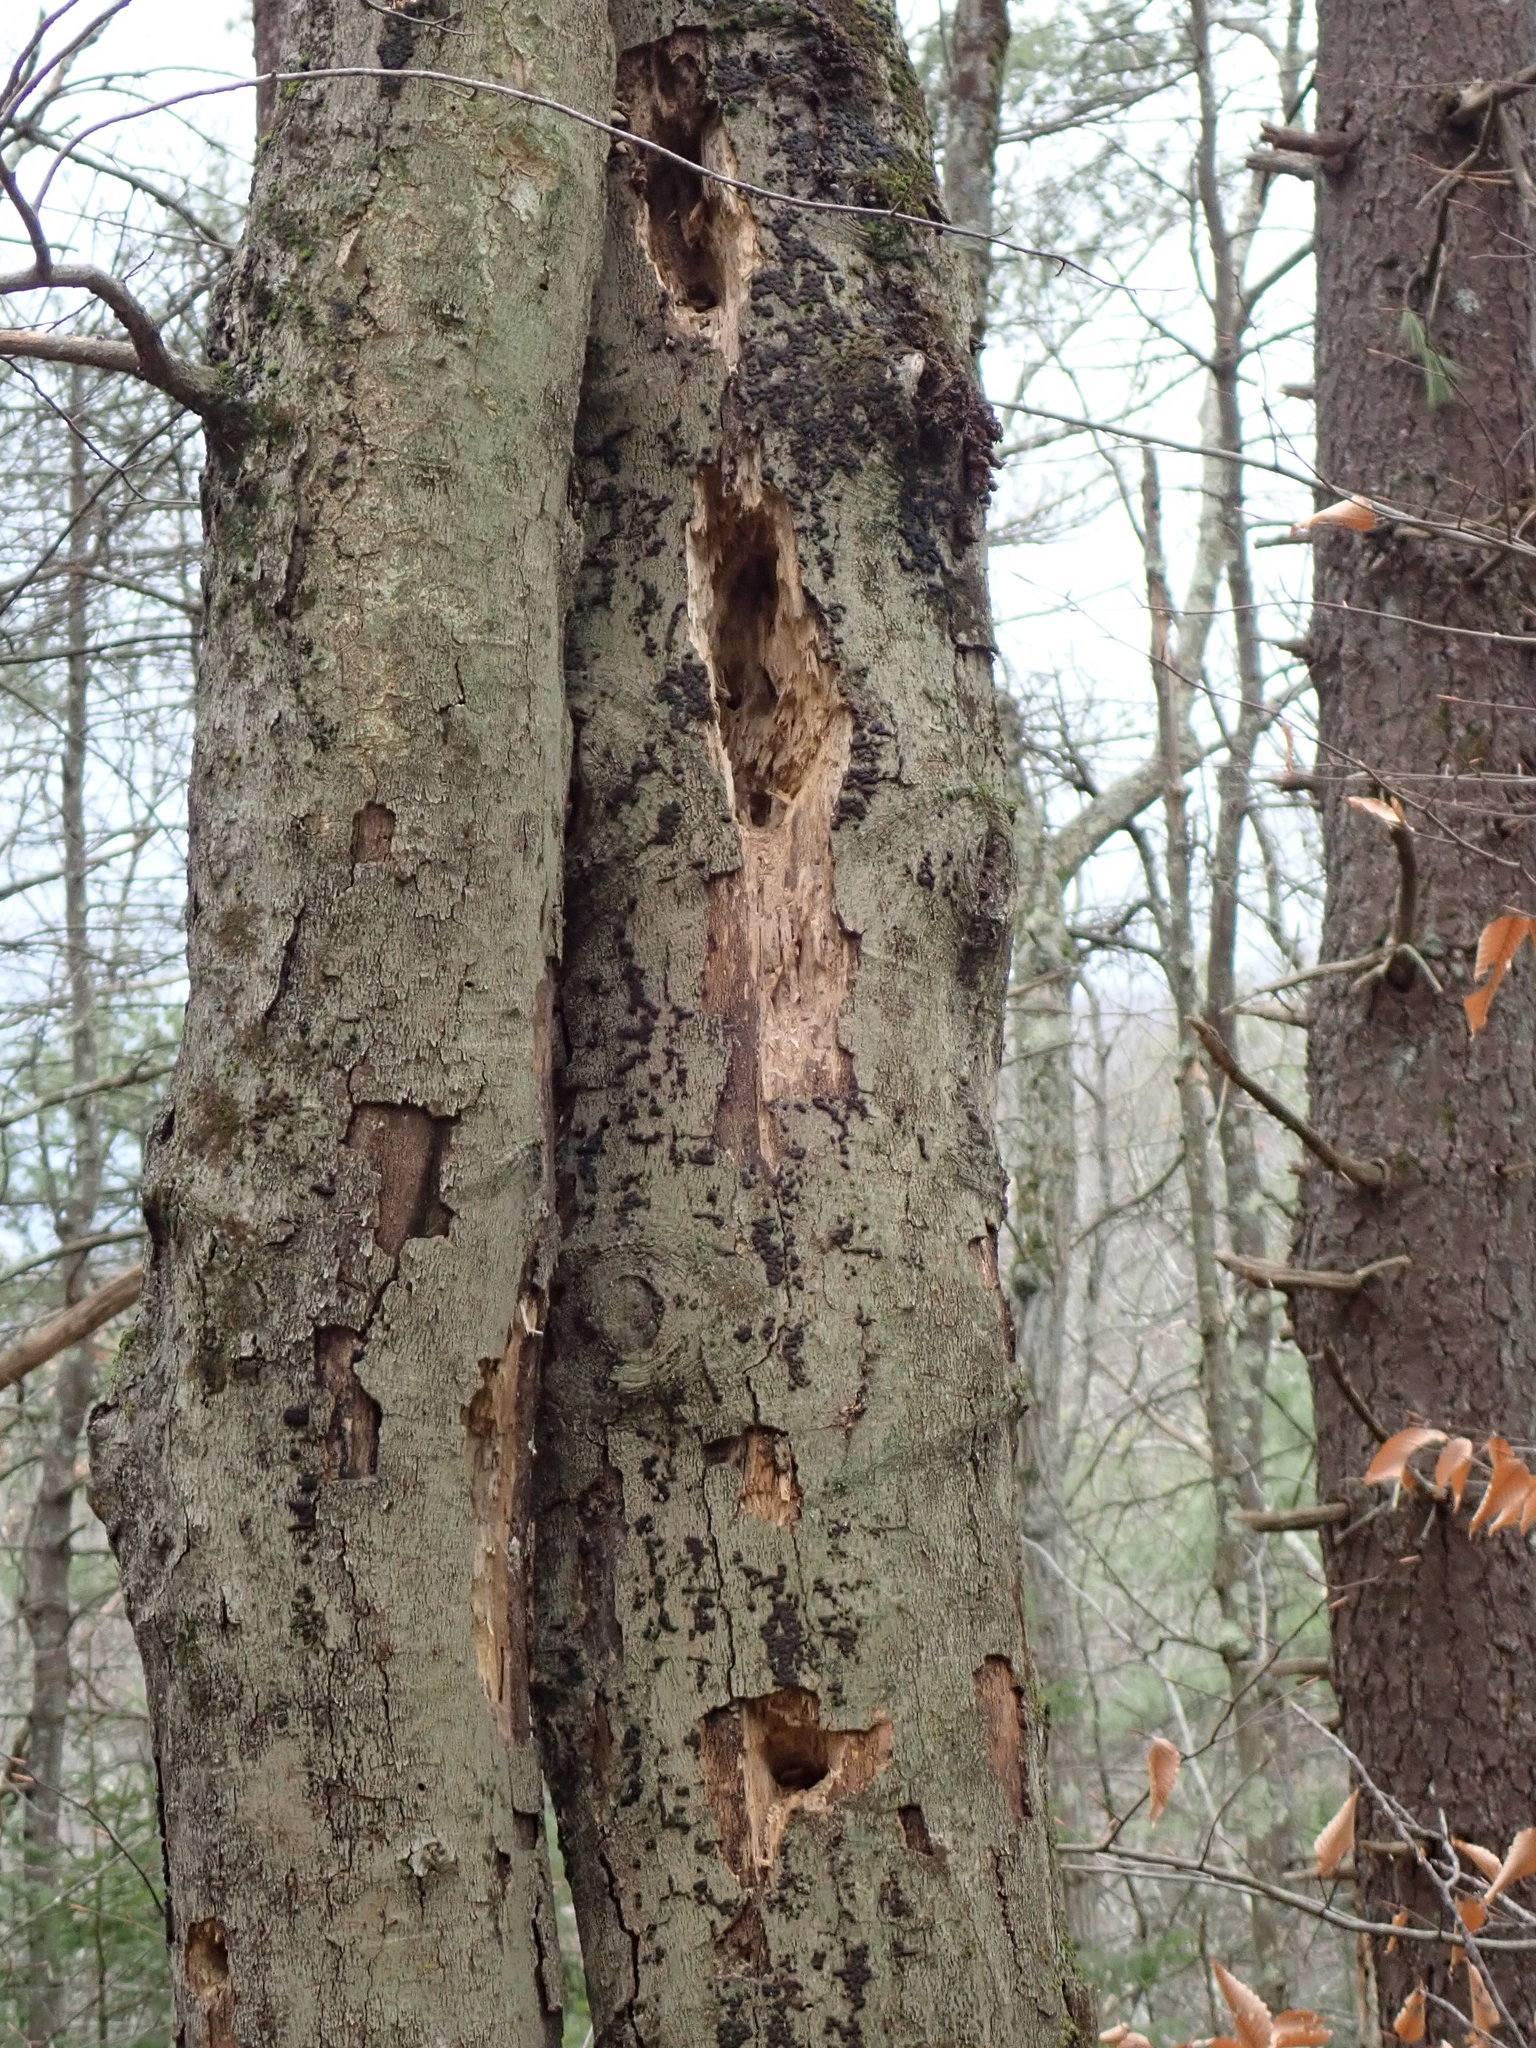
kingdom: Animalia
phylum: Chordata
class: Aves
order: Piciformes
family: Picidae
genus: Dryocopus
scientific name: Dryocopus pileatus
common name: Pileated woodpecker
